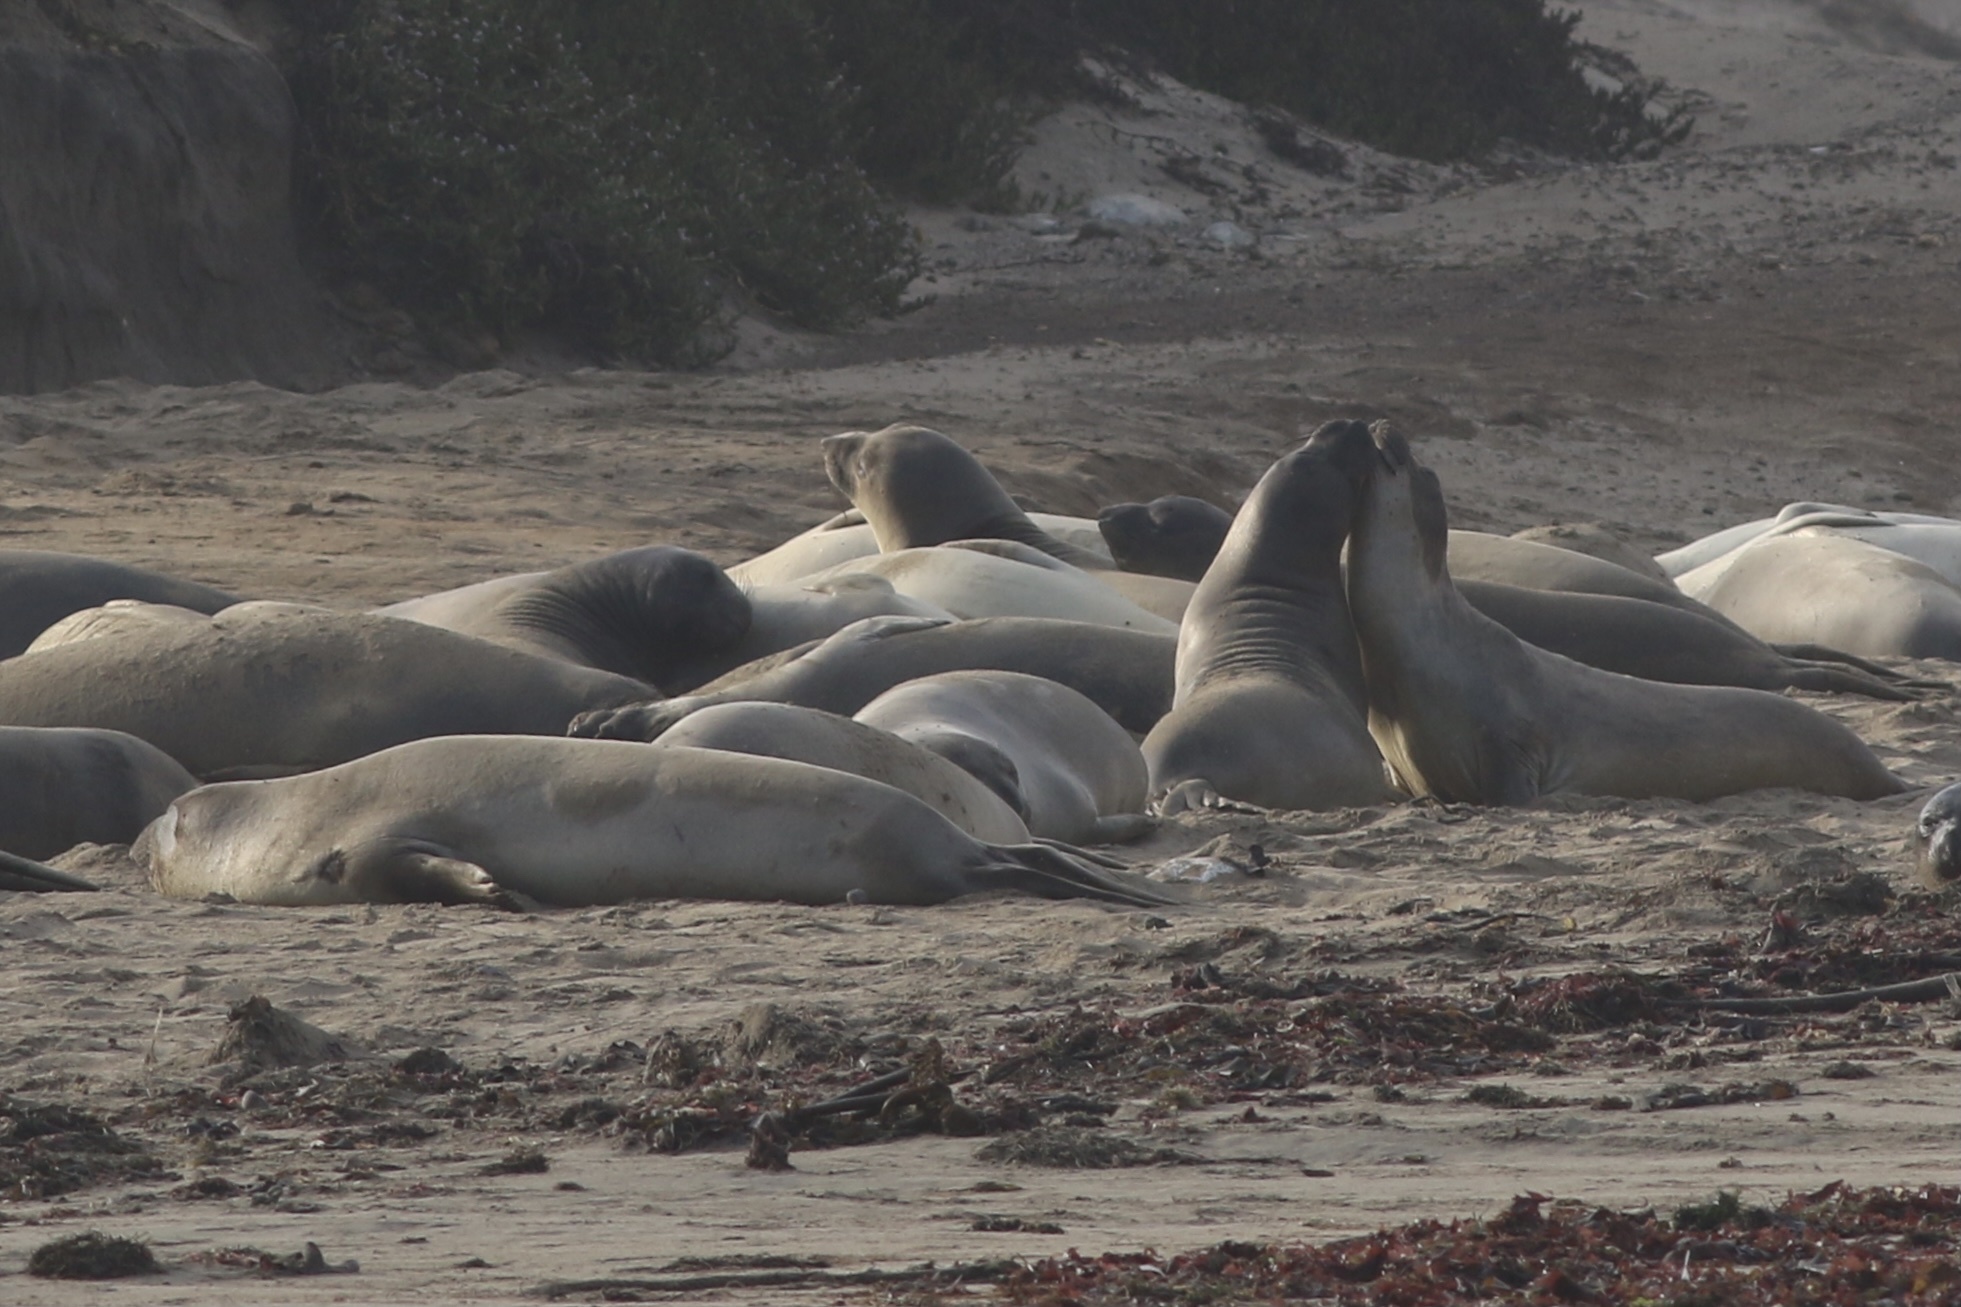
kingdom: Animalia
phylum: Chordata
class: Mammalia
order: Carnivora
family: Phocidae
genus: Mirounga
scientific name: Mirounga angustirostris
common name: Northern elephant seal
